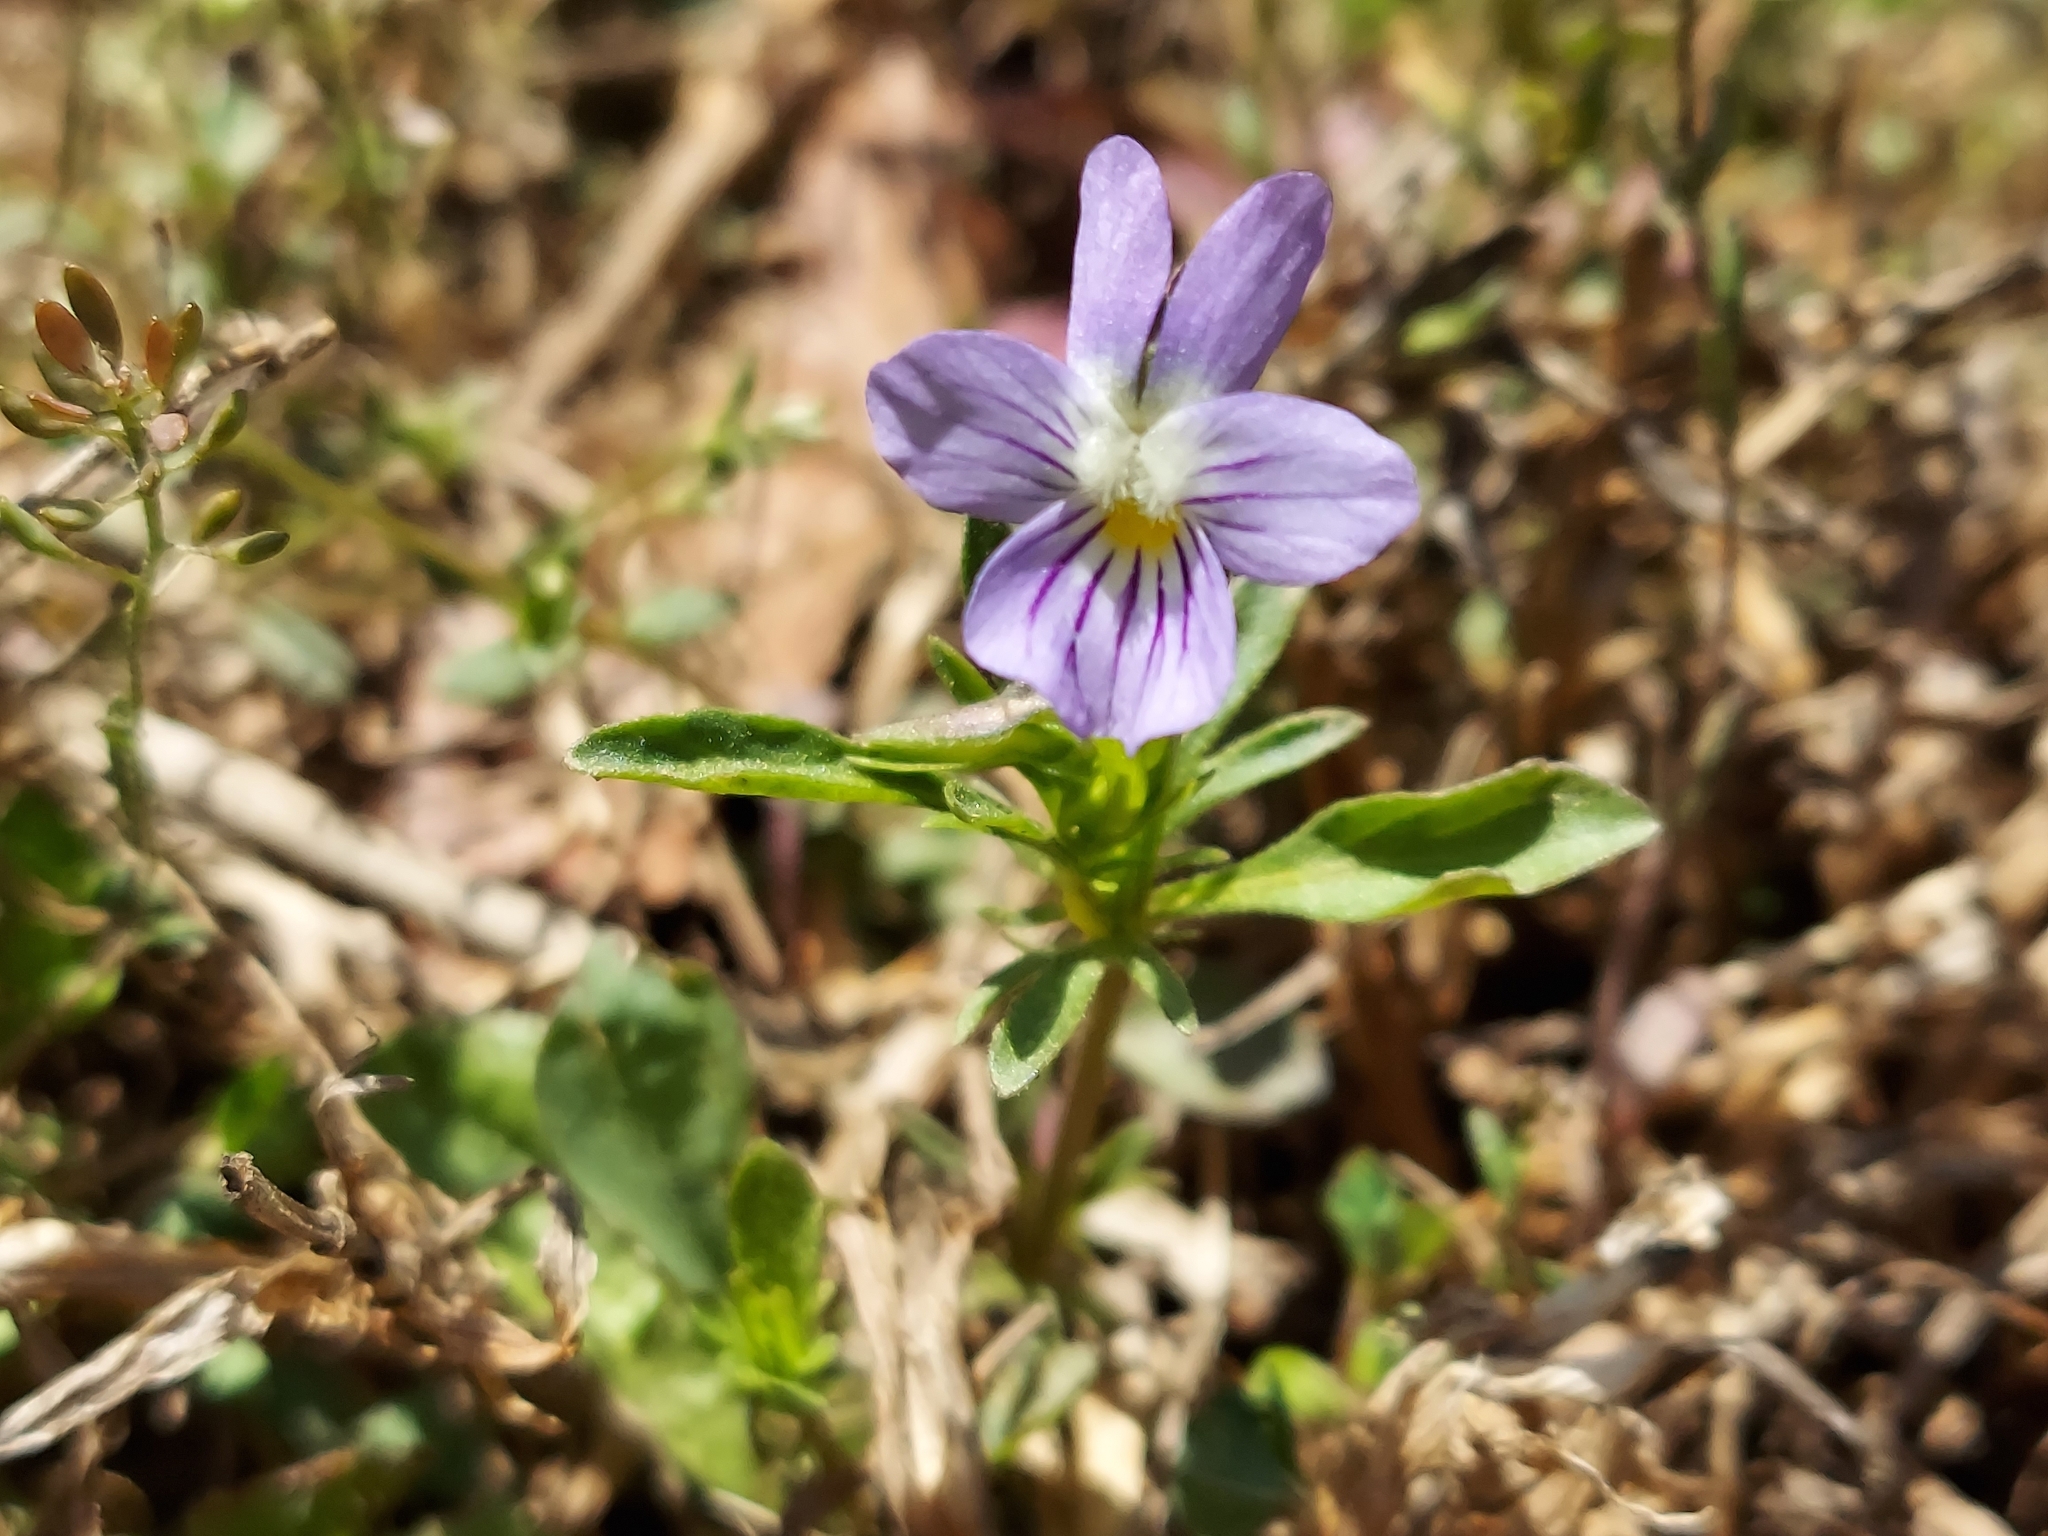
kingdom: Plantae
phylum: Tracheophyta
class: Magnoliopsida
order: Malpighiales
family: Violaceae
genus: Viola
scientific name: Viola rafinesquei
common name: American field pansy
